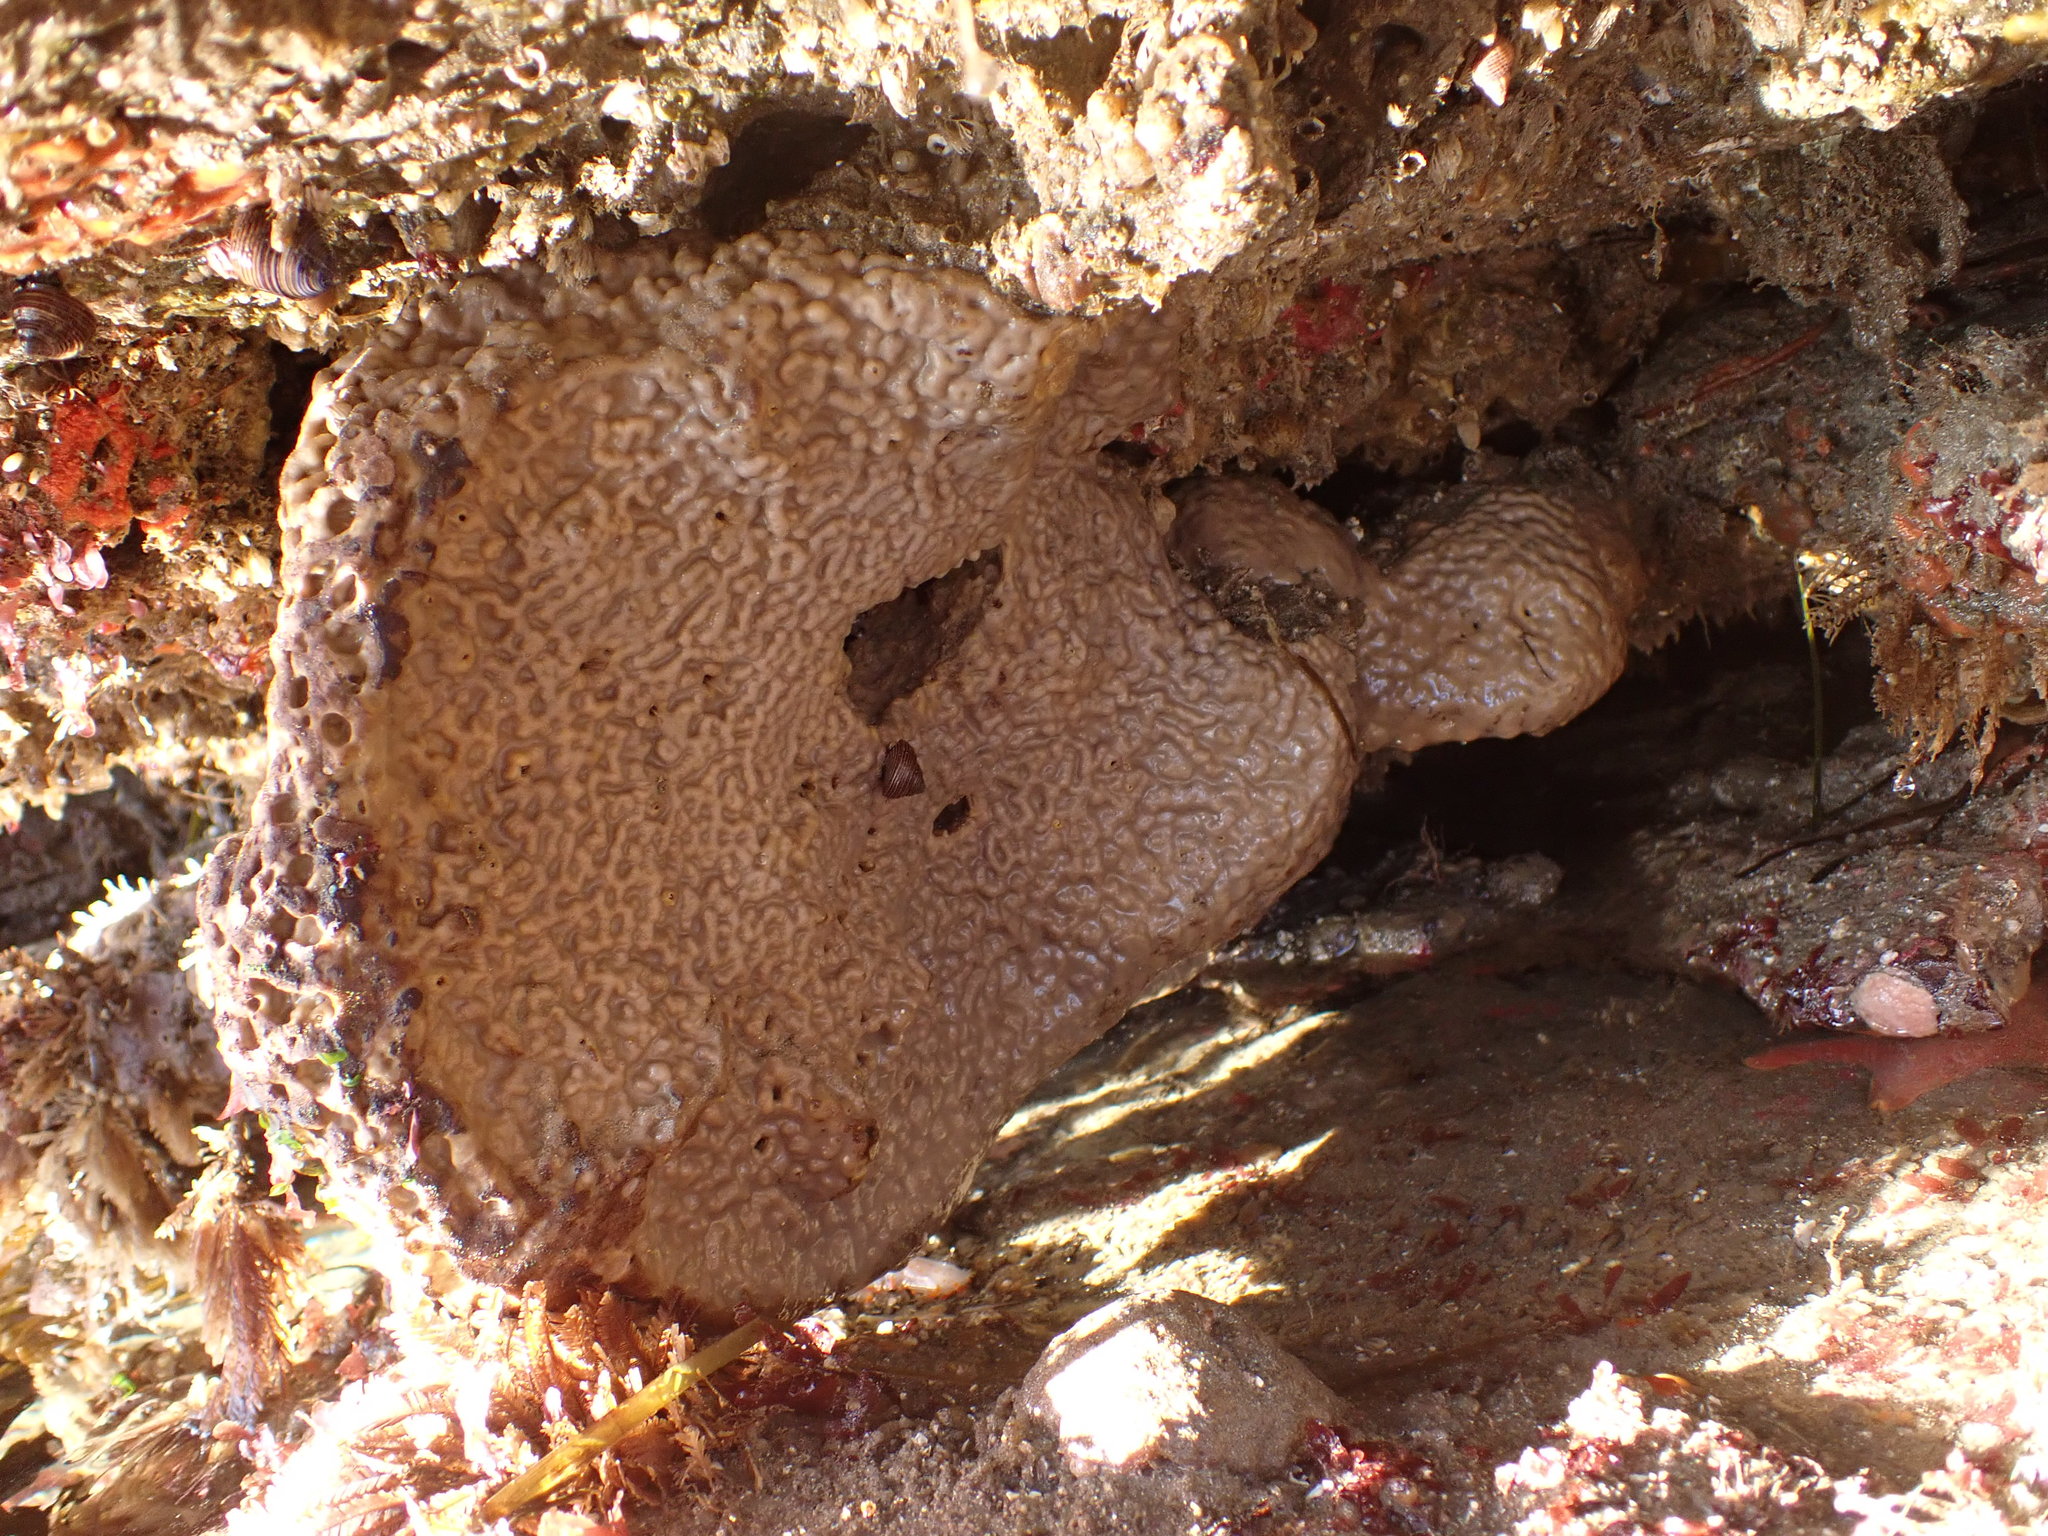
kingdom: Animalia
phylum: Porifera
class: Demospongiae
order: Clionaida
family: Clionaidae
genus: Spheciospongia
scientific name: Spheciospongia confoederata
